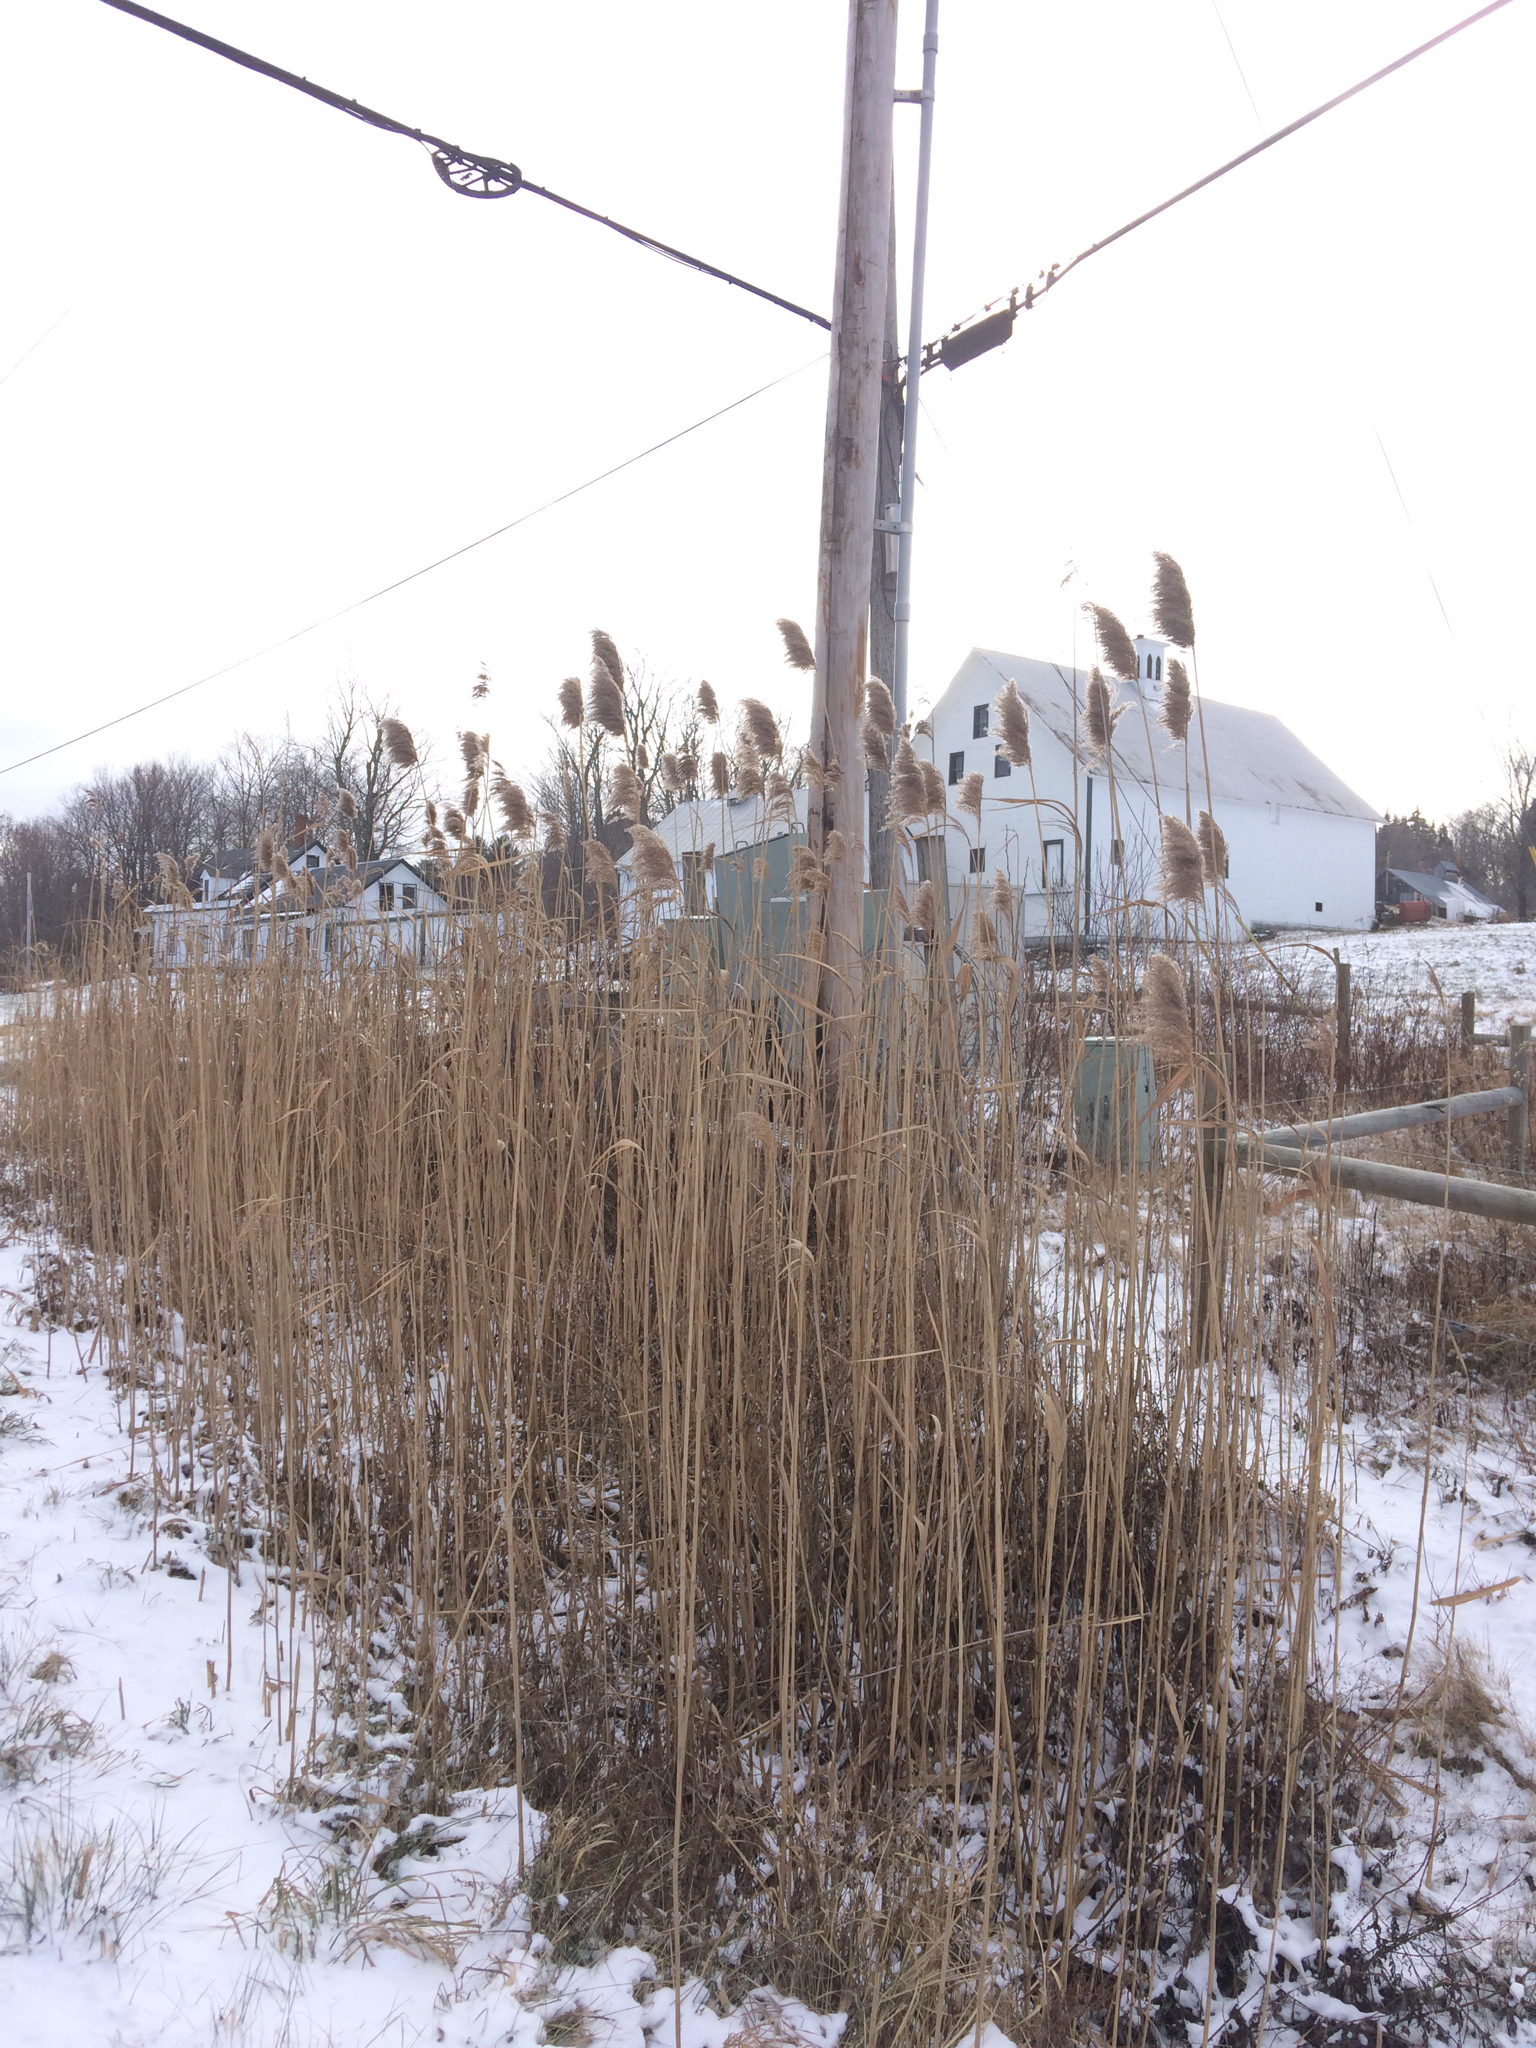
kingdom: Plantae
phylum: Tracheophyta
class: Liliopsida
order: Poales
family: Poaceae
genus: Phragmites
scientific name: Phragmites australis
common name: Common reed
